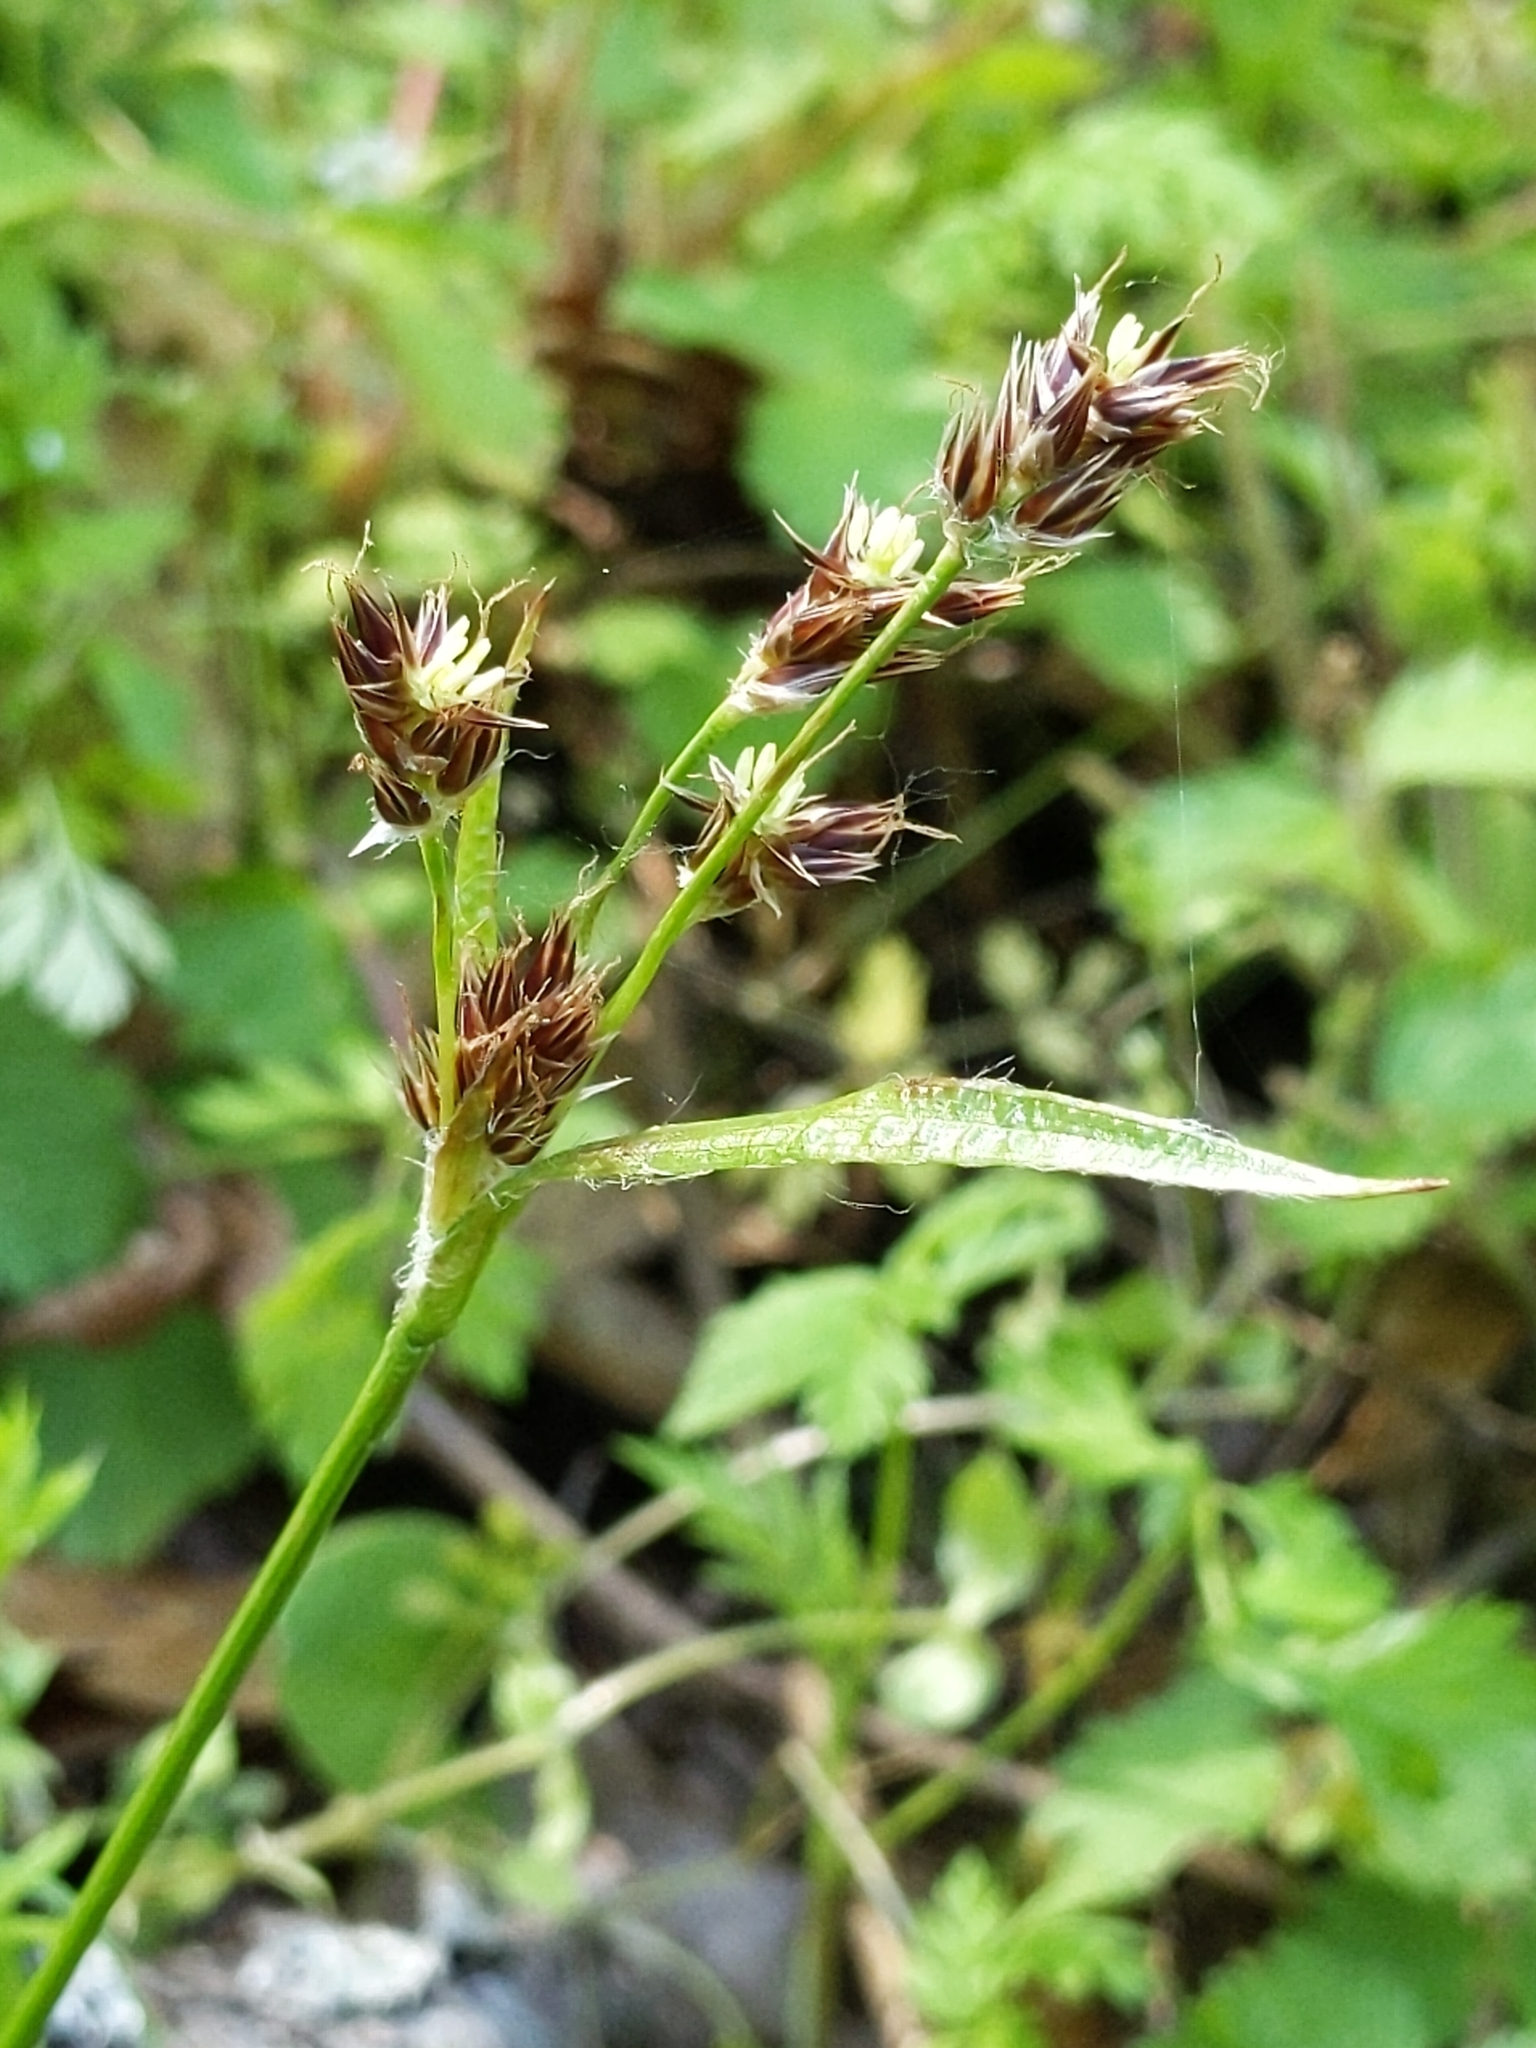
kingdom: Plantae
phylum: Tracheophyta
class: Liliopsida
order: Poales
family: Juncaceae
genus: Luzula
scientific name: Luzula macrantha
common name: Large-anthered woodrush
